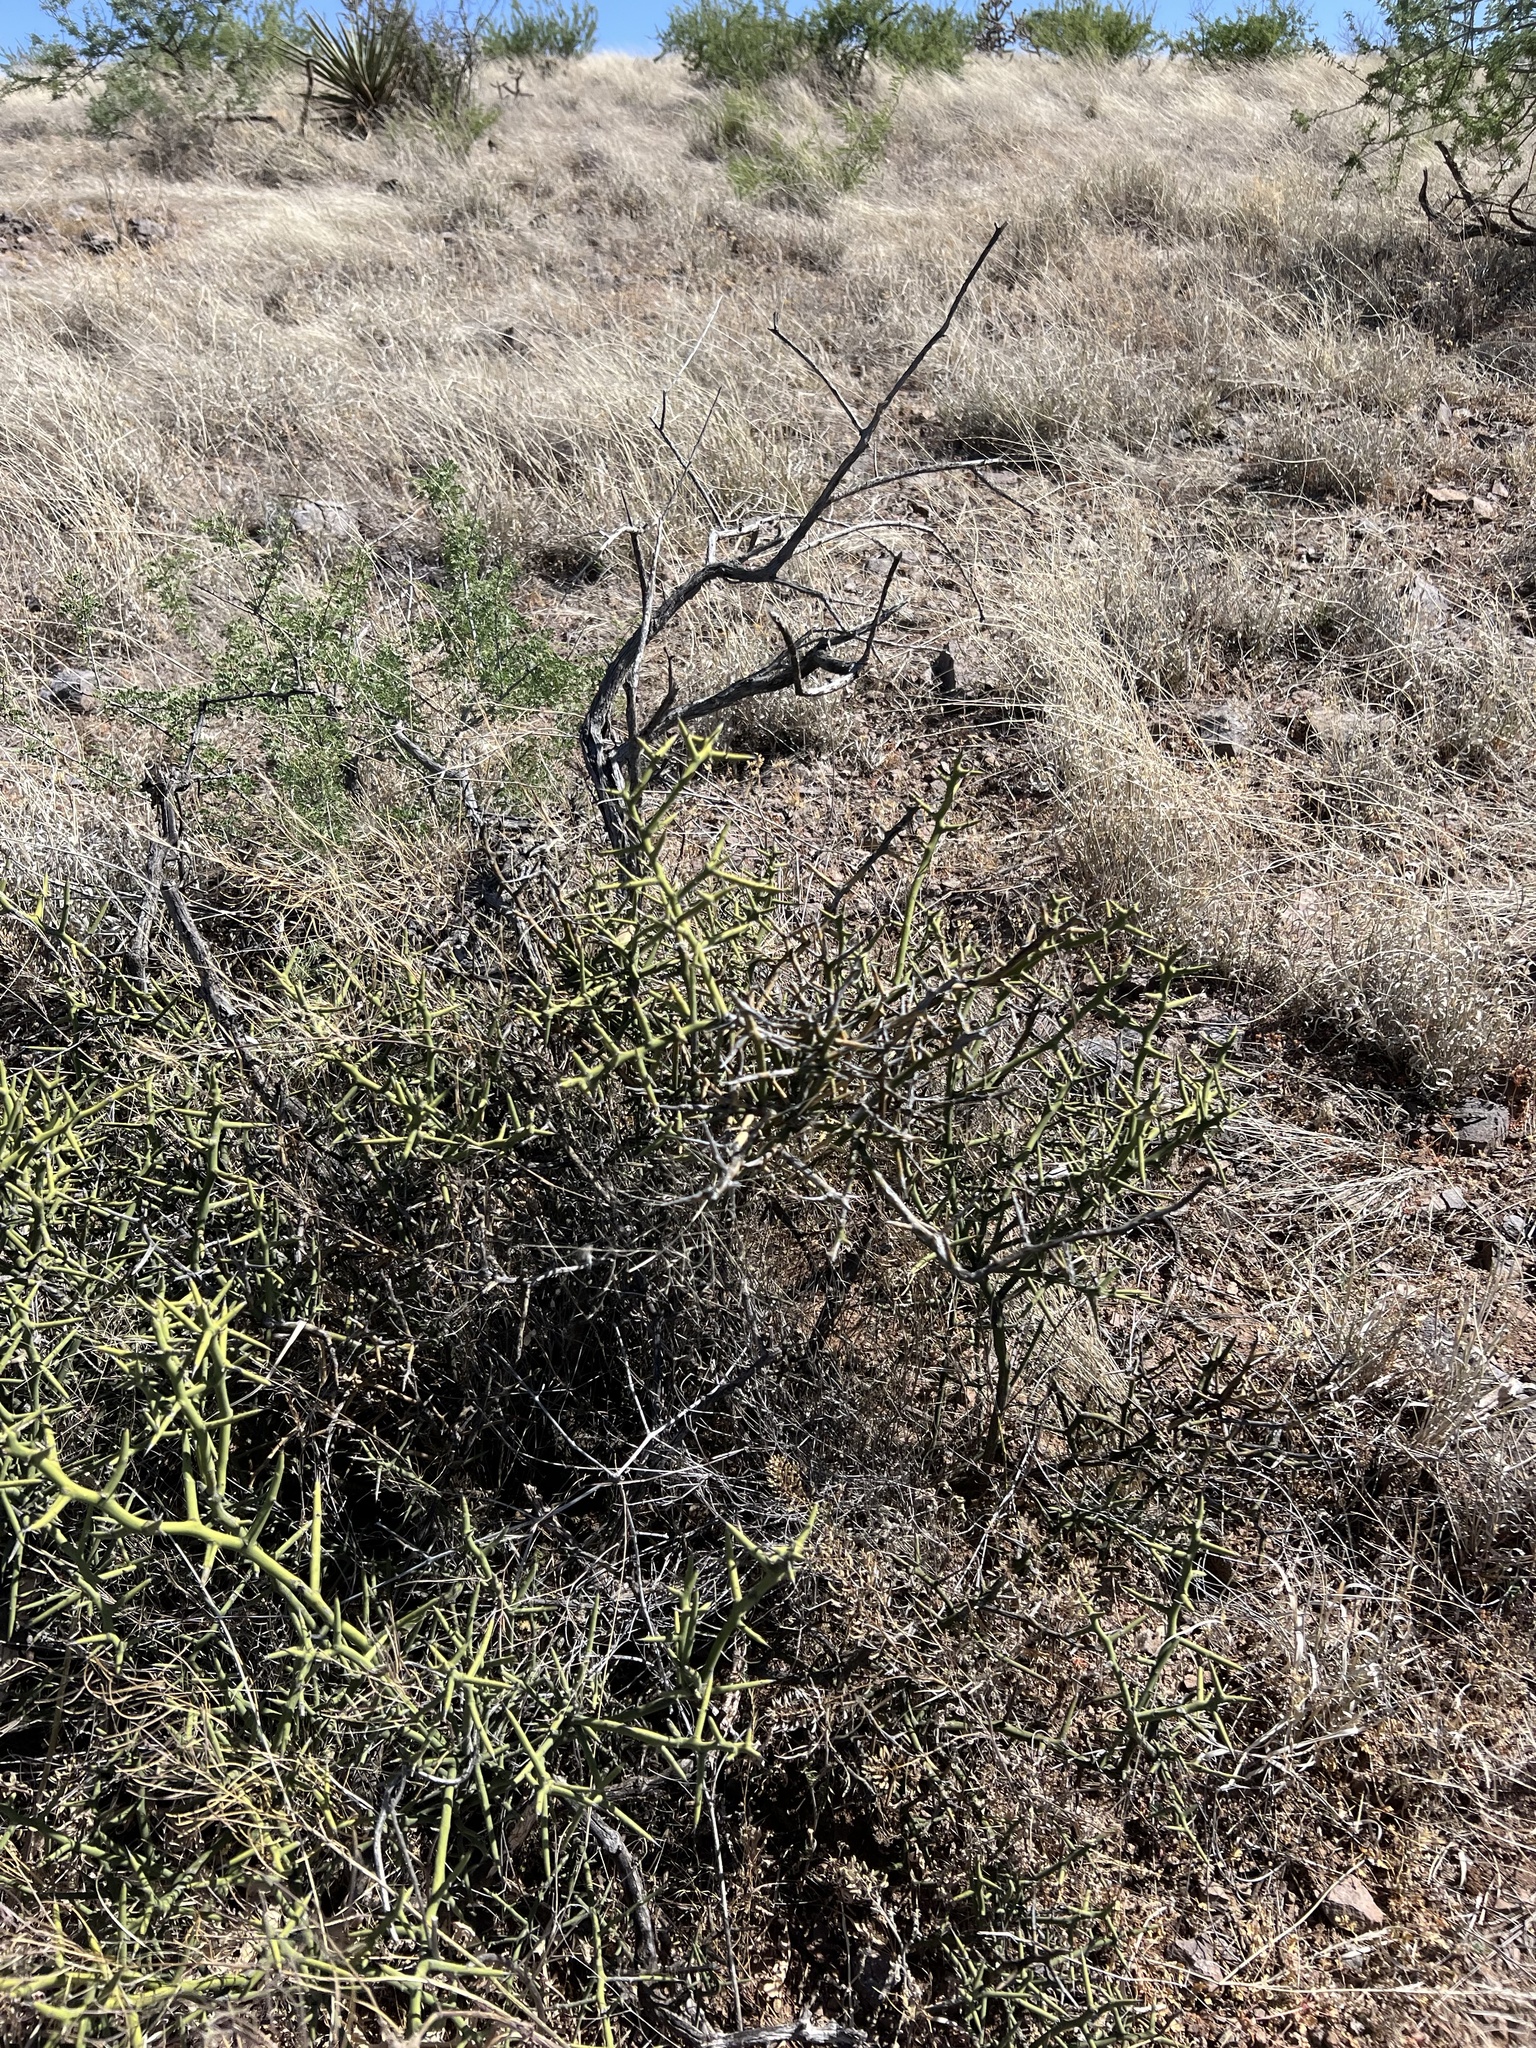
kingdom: Plantae
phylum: Tracheophyta
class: Magnoliopsida
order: Brassicales
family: Koeberliniaceae
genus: Koeberlinia
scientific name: Koeberlinia spinosa
